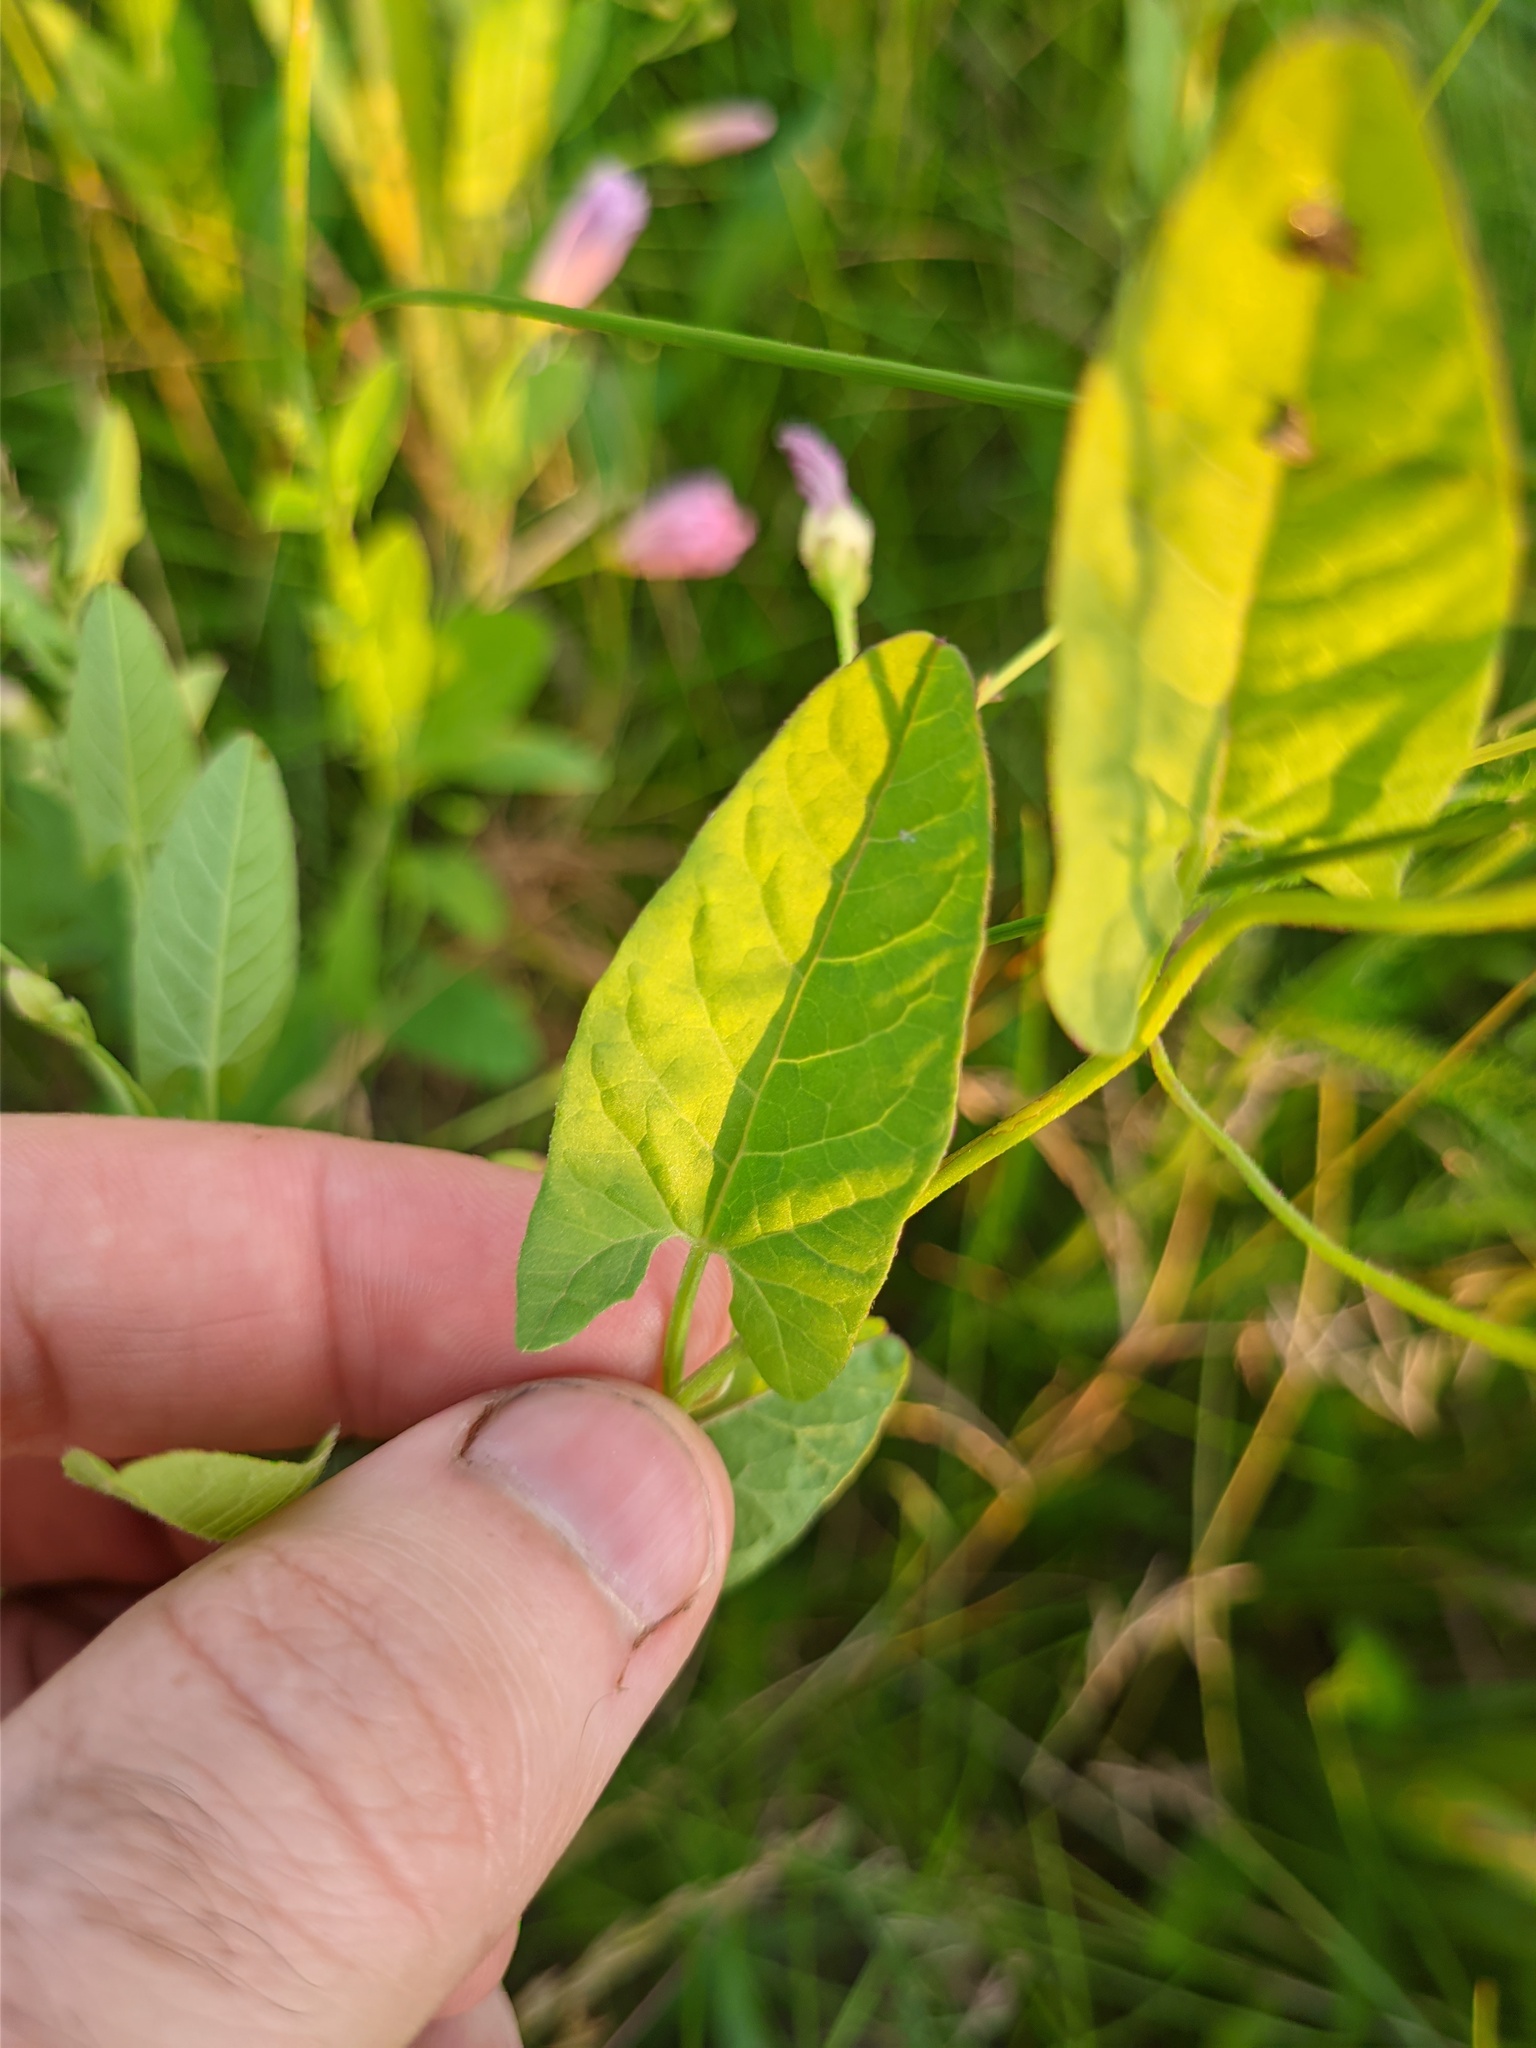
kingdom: Plantae
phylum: Tracheophyta
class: Magnoliopsida
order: Solanales
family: Convolvulaceae
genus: Convolvulus
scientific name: Convolvulus arvensis
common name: Field bindweed
